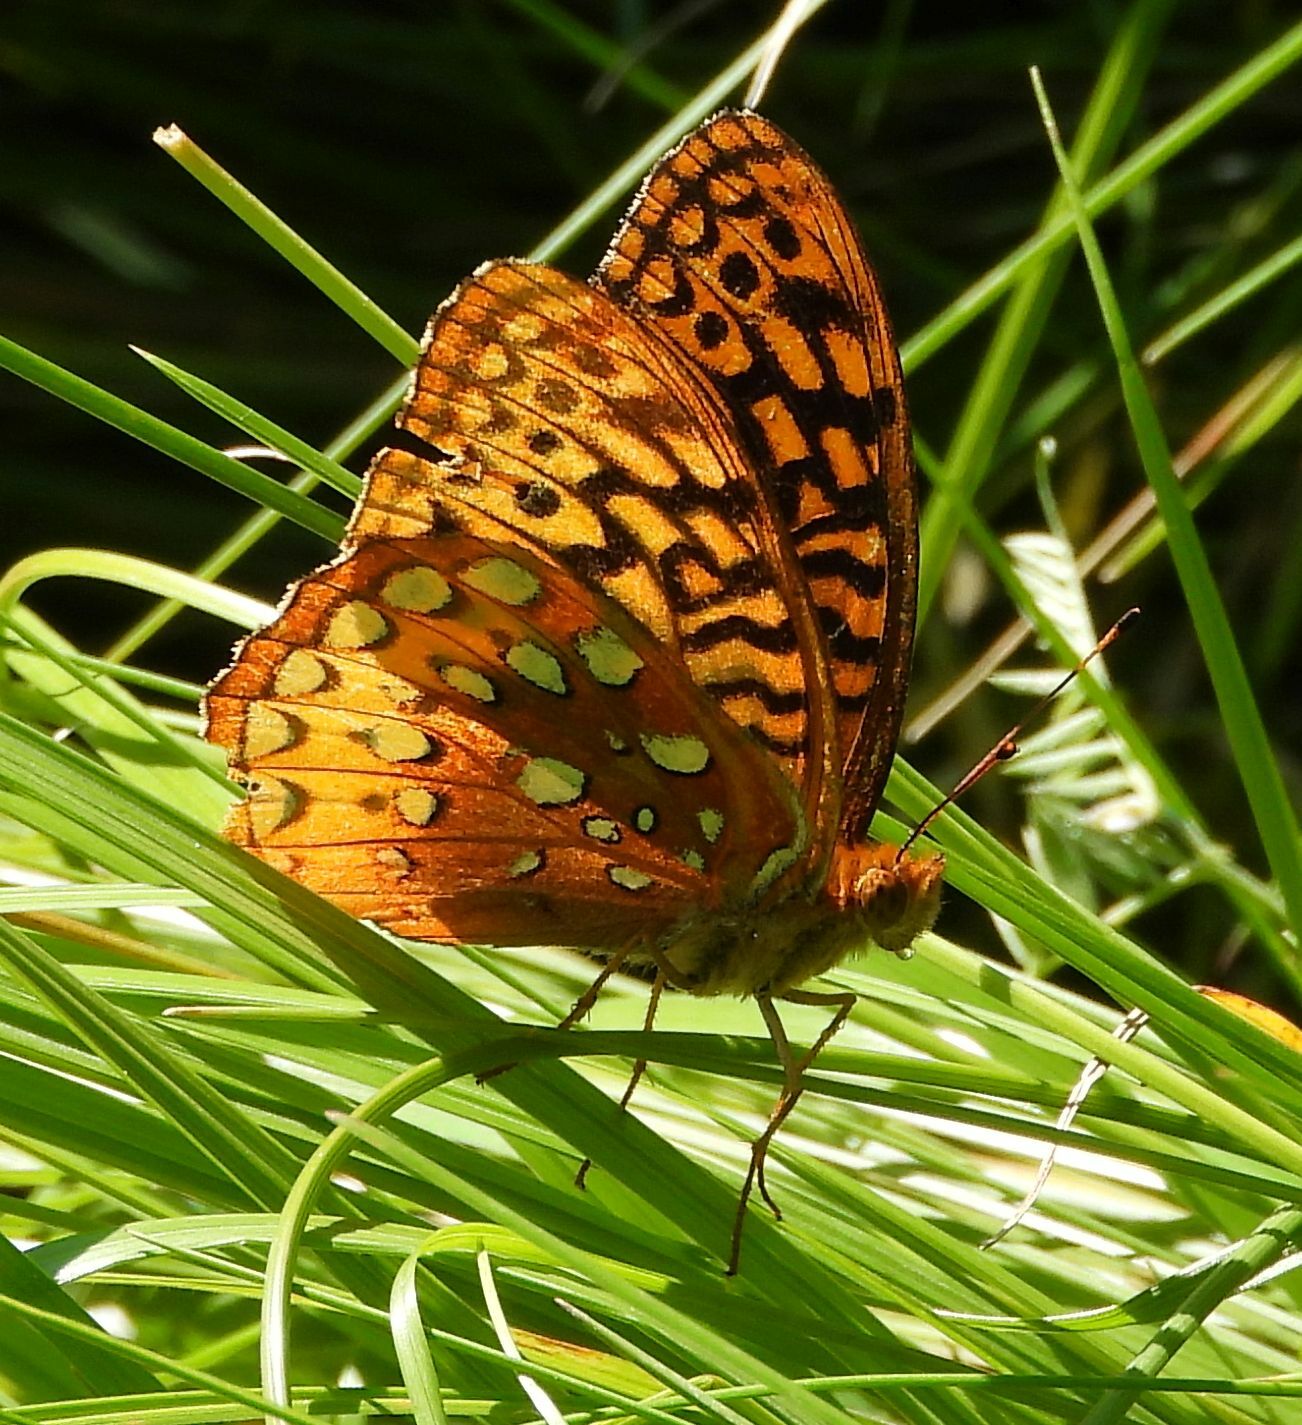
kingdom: Animalia
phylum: Arthropoda
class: Insecta
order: Lepidoptera
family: Nymphalidae
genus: Speyeria
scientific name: Speyeria cybele
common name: Great spangled fritillary
